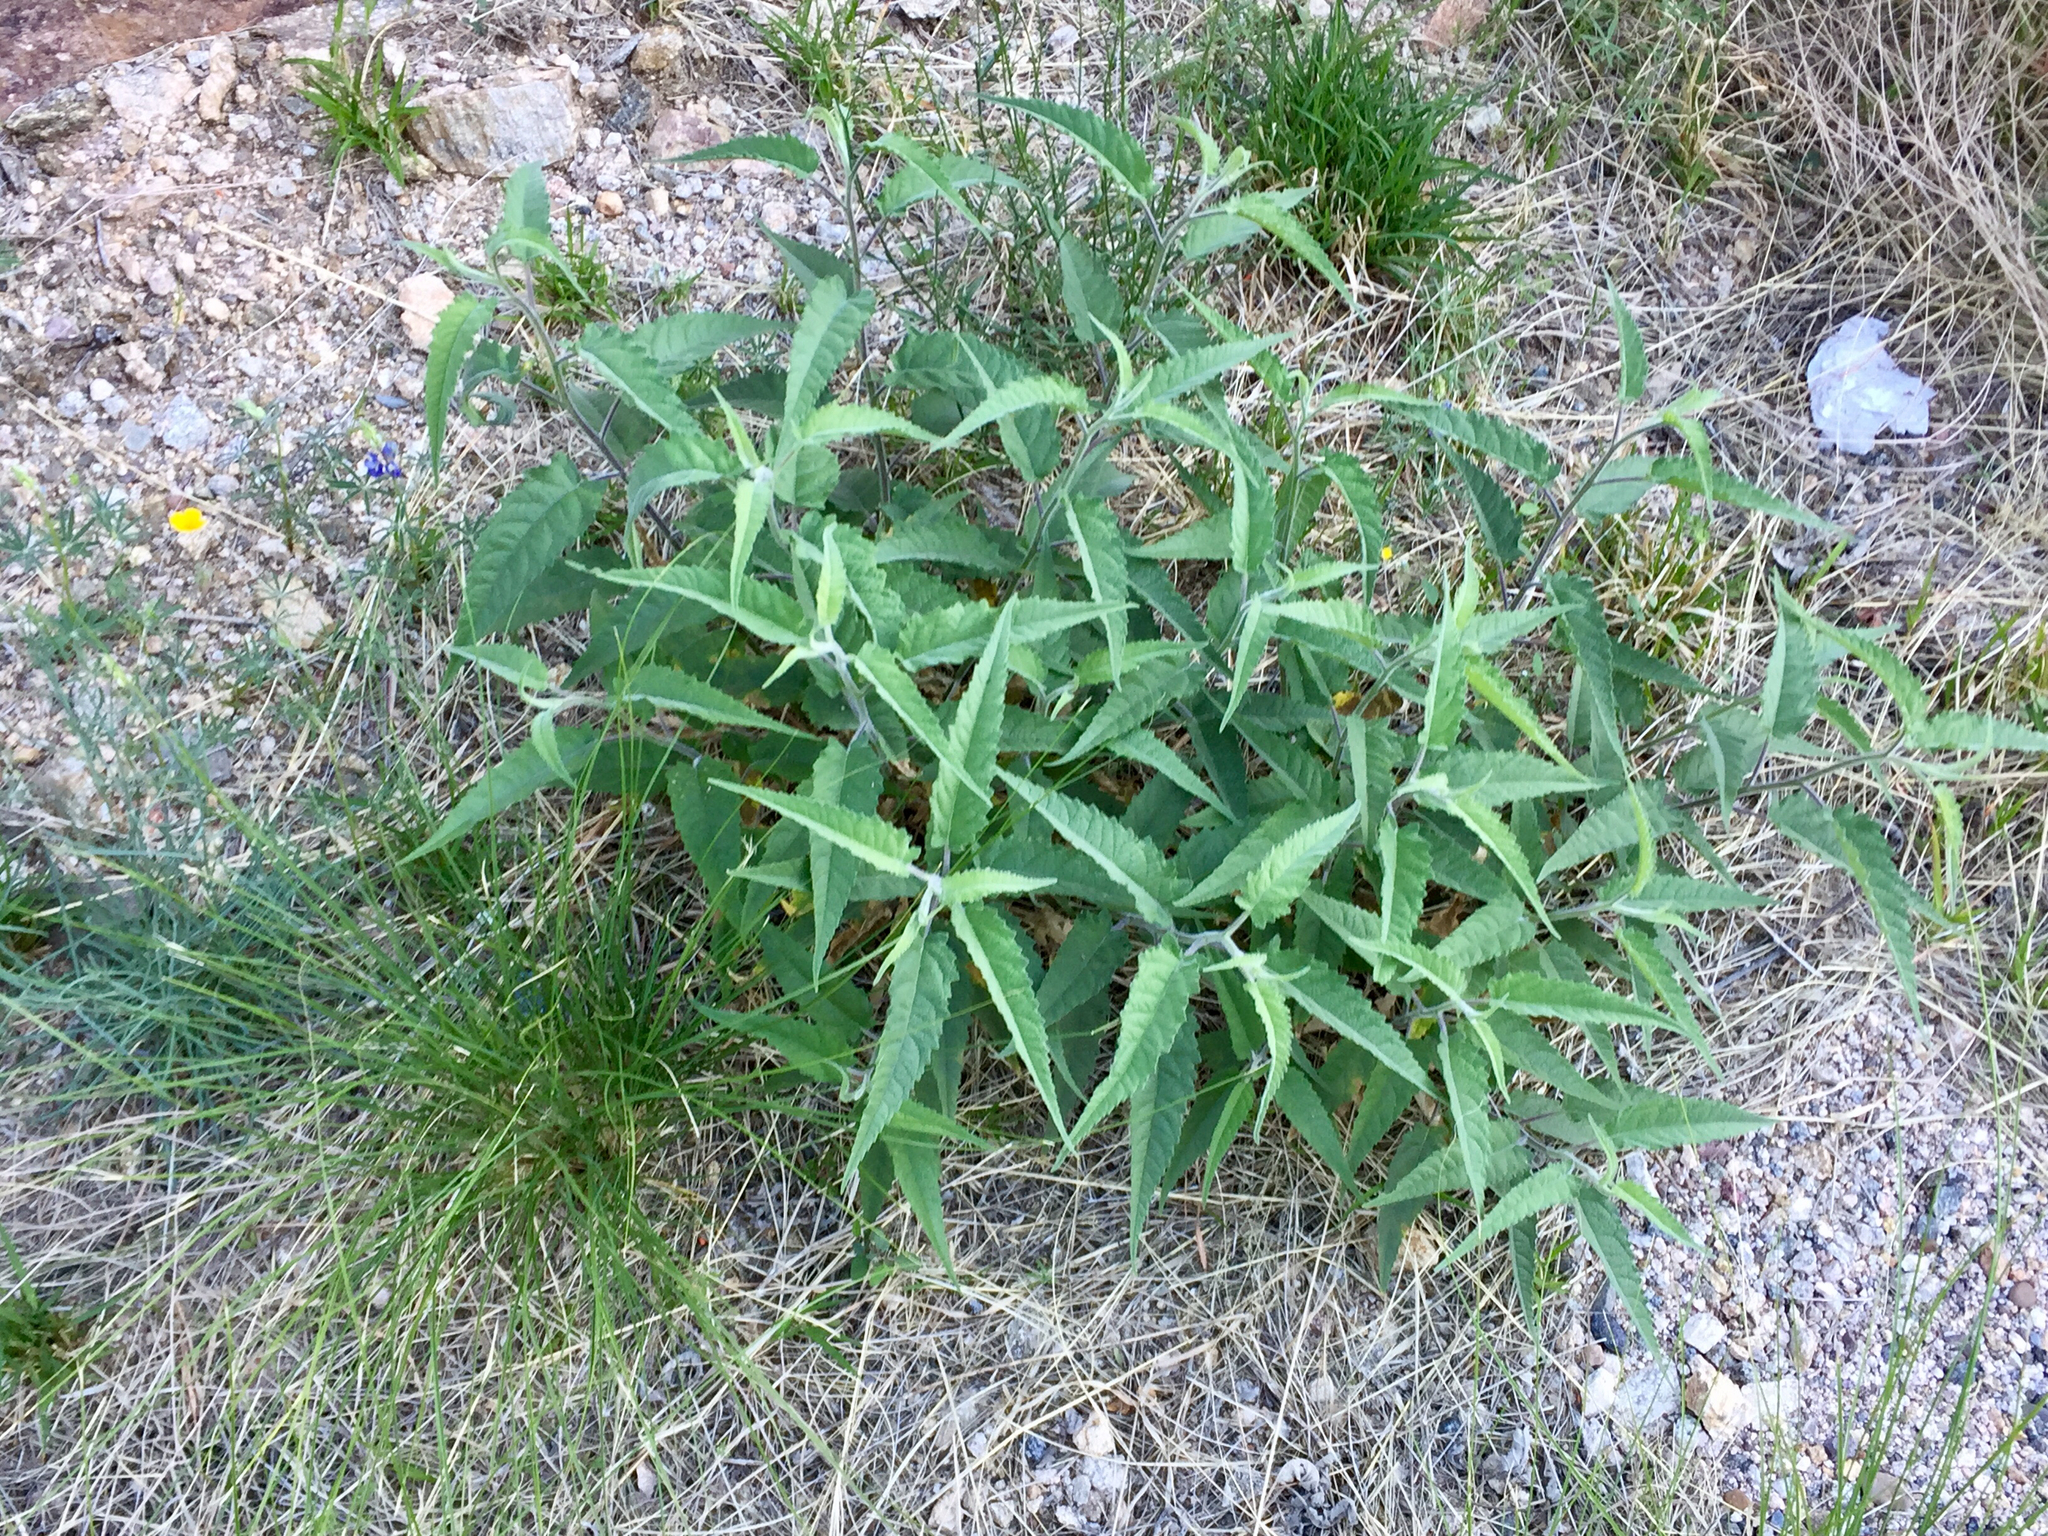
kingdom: Plantae
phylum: Tracheophyta
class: Magnoliopsida
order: Asterales
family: Asteraceae
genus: Ambrosia
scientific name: Ambrosia ambrosioides
